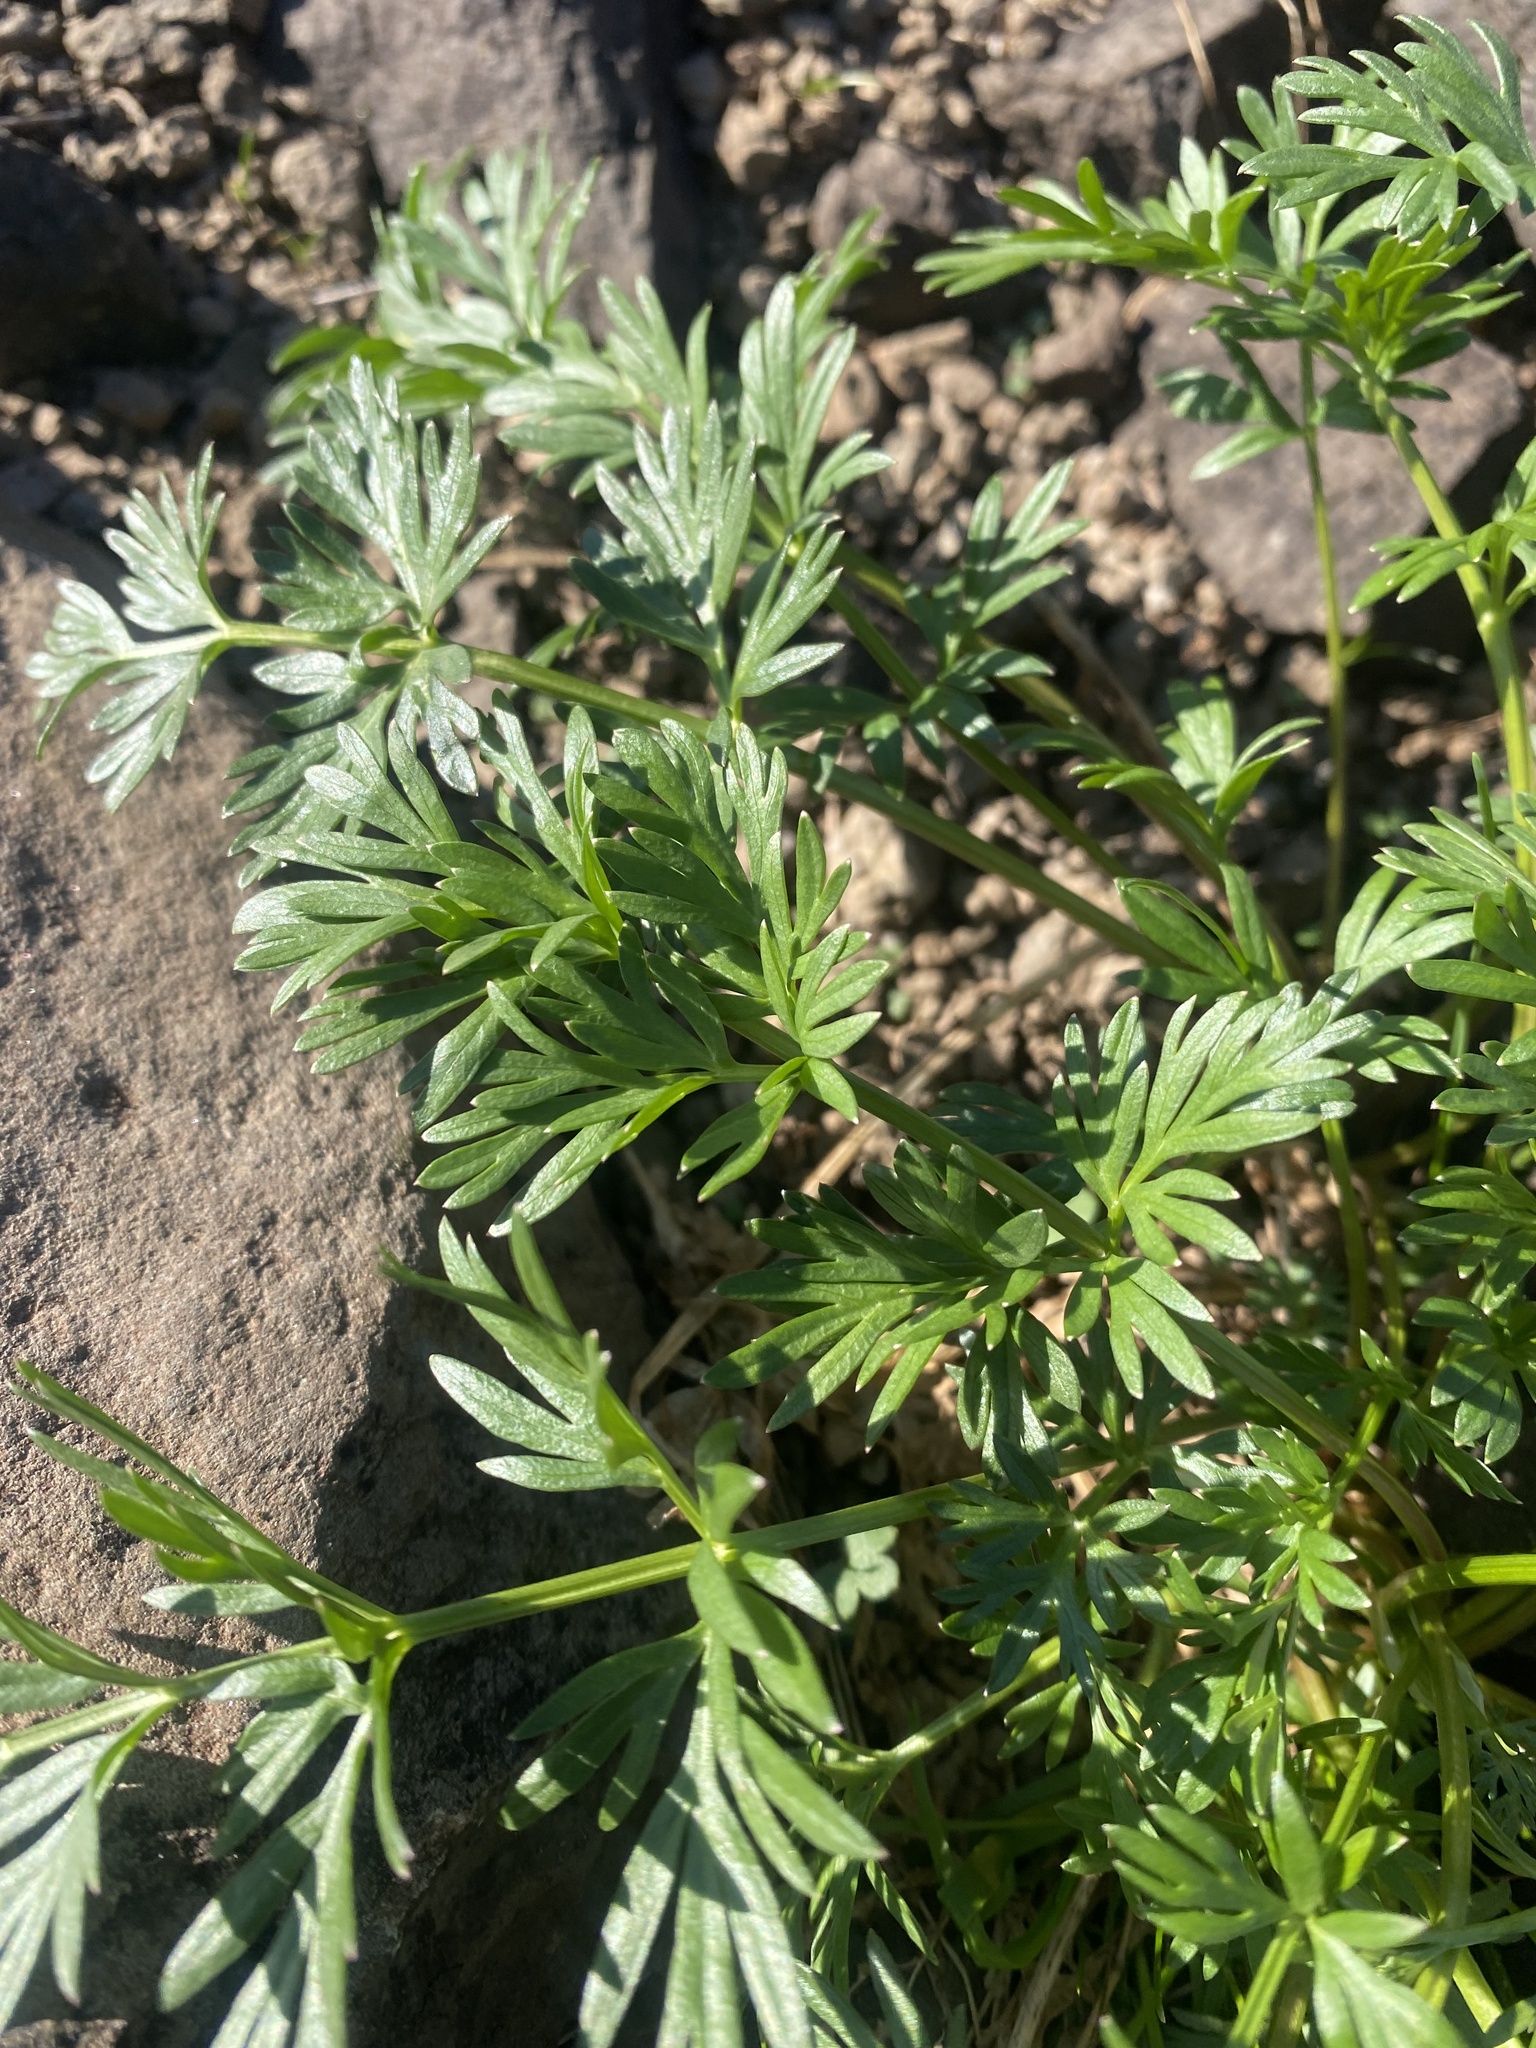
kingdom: Plantae
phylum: Tracheophyta
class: Magnoliopsida
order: Apiales
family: Apiaceae
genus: Pachypleurum
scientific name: Pachypleurum mutellinoides
